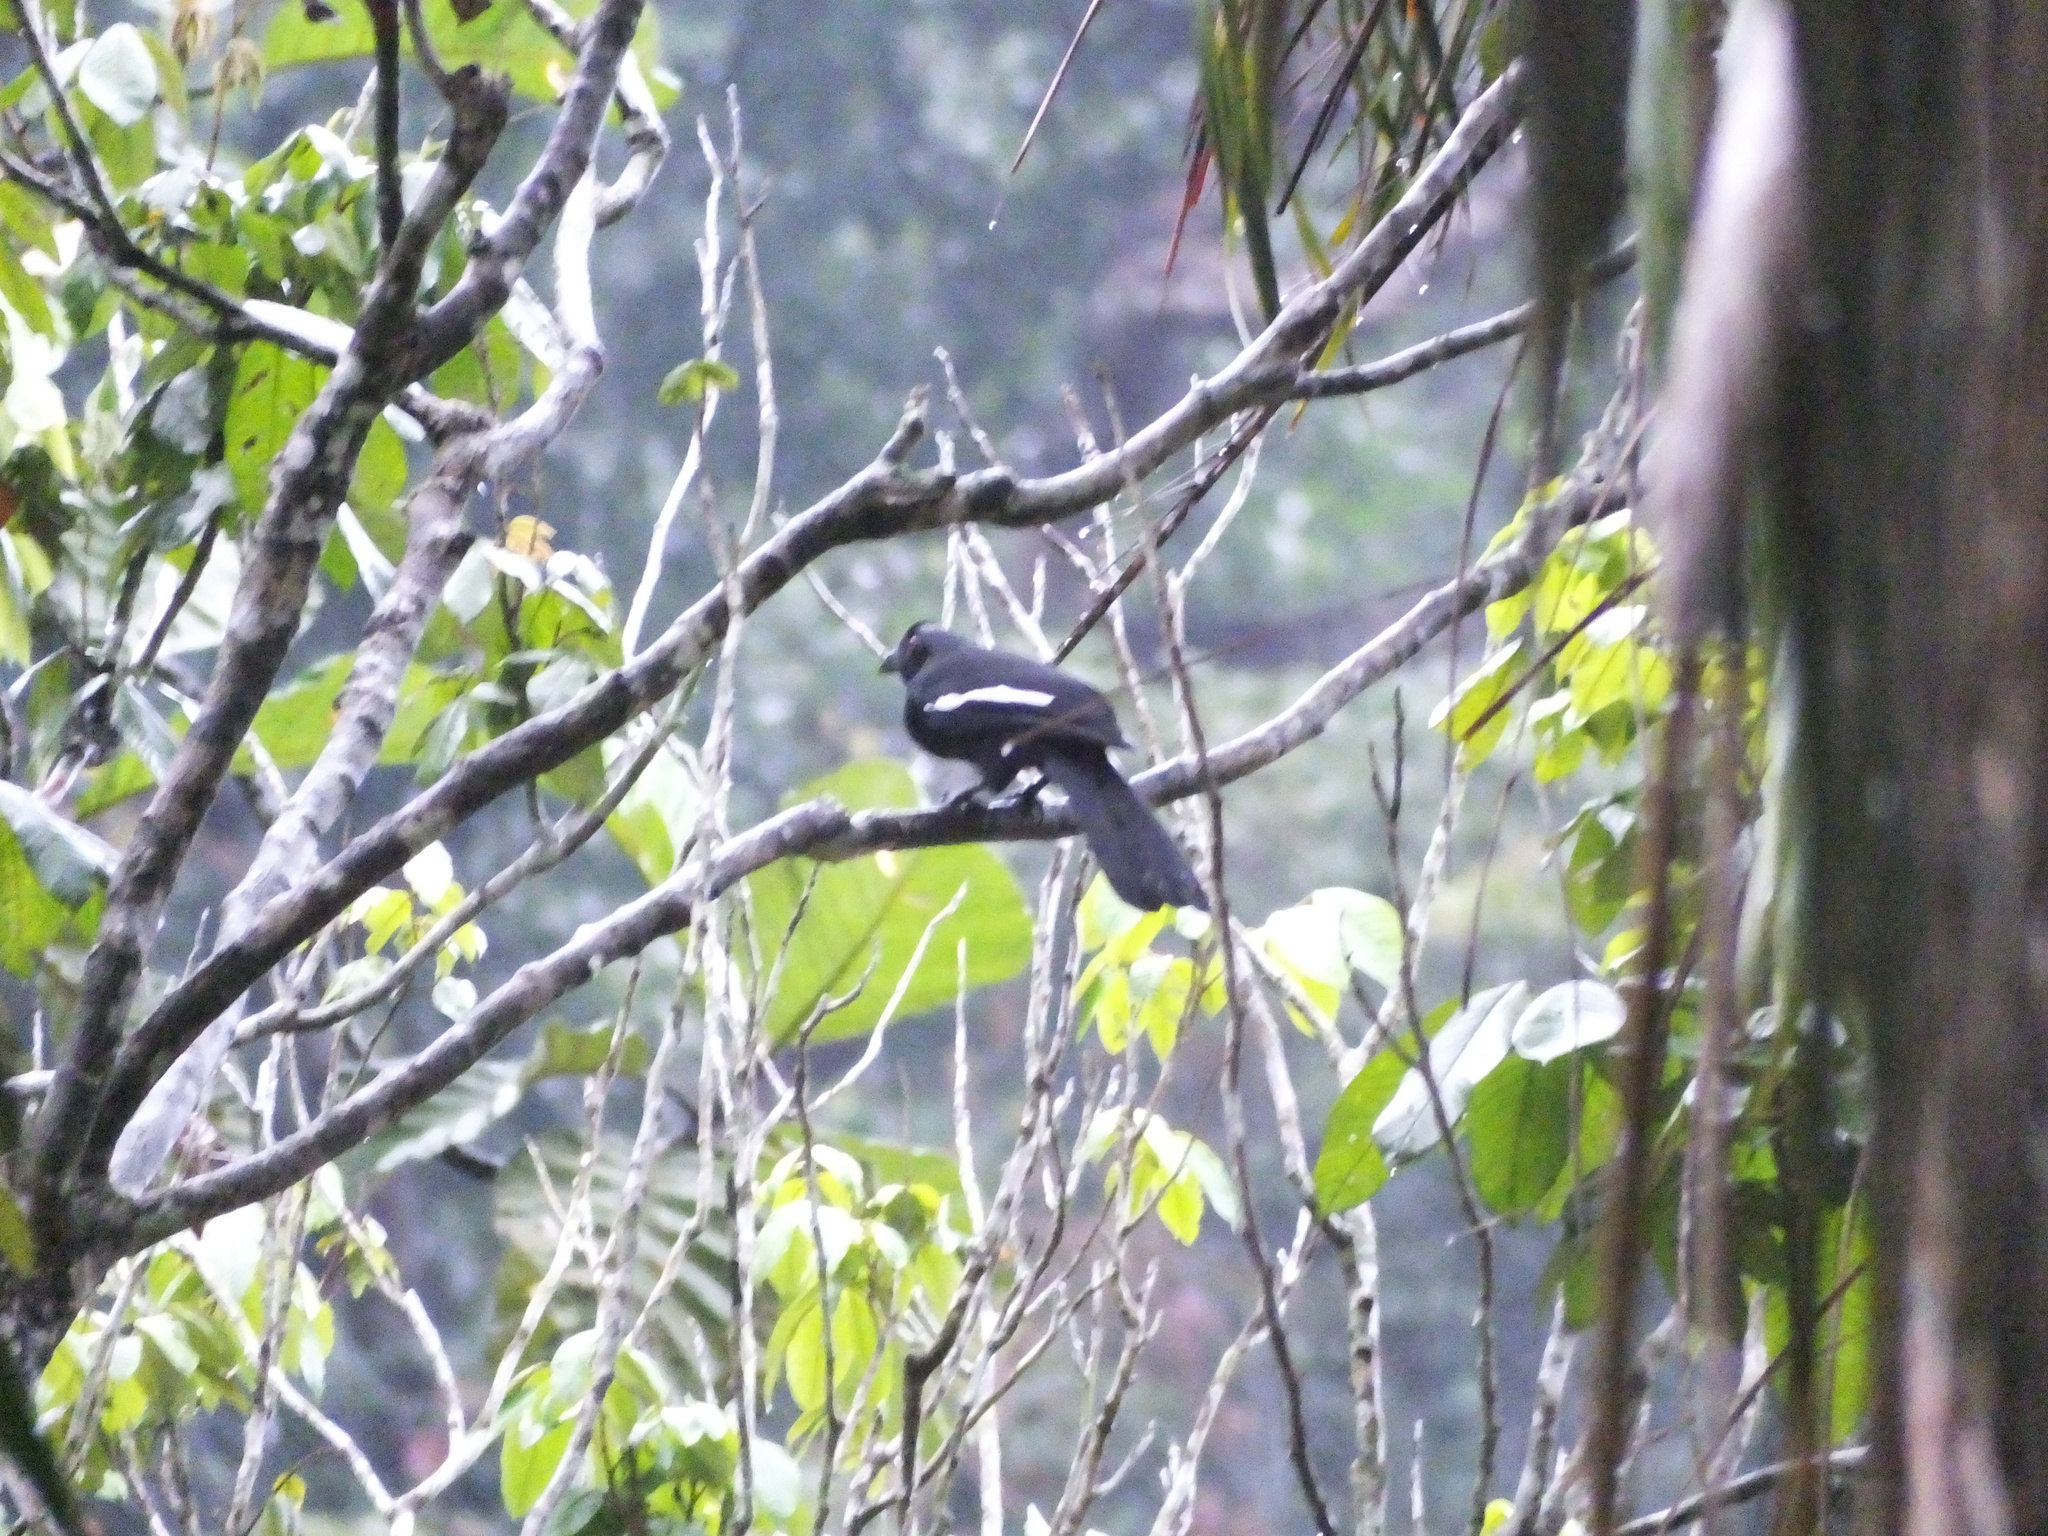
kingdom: Animalia
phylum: Chordata
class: Aves
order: Passeriformes
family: Corvidae
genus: Platysmurus
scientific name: Platysmurus leucopterus
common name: Black magpie
